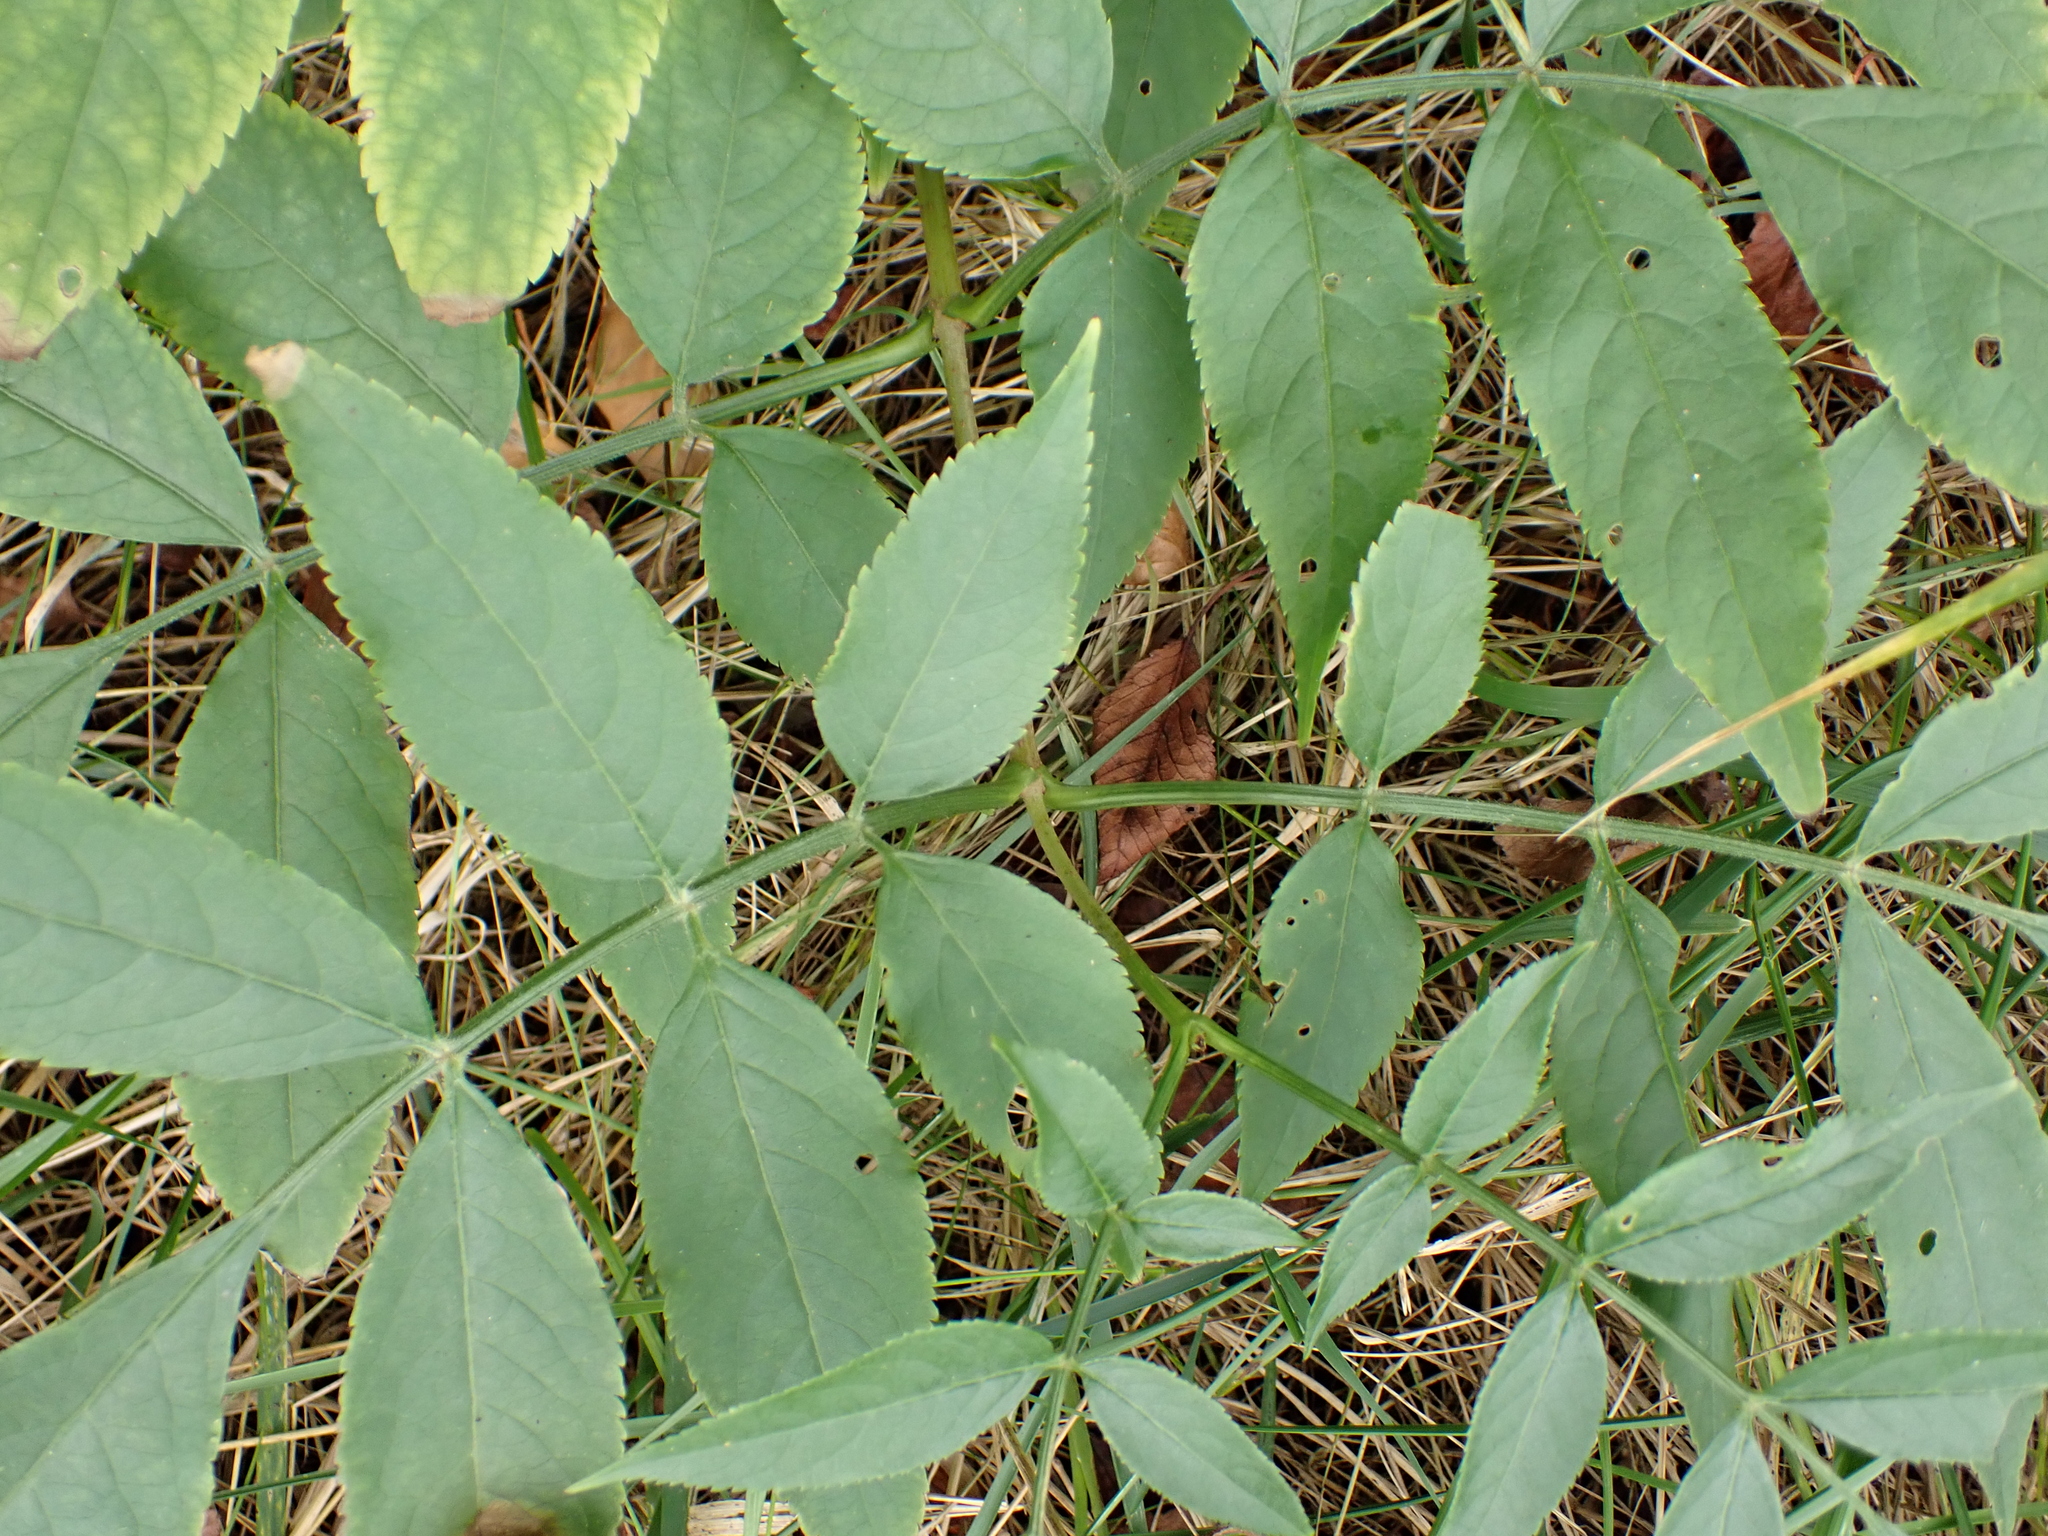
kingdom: Plantae
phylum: Tracheophyta
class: Magnoliopsida
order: Dipsacales
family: Viburnaceae
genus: Sambucus
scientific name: Sambucus nigra
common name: Elder
